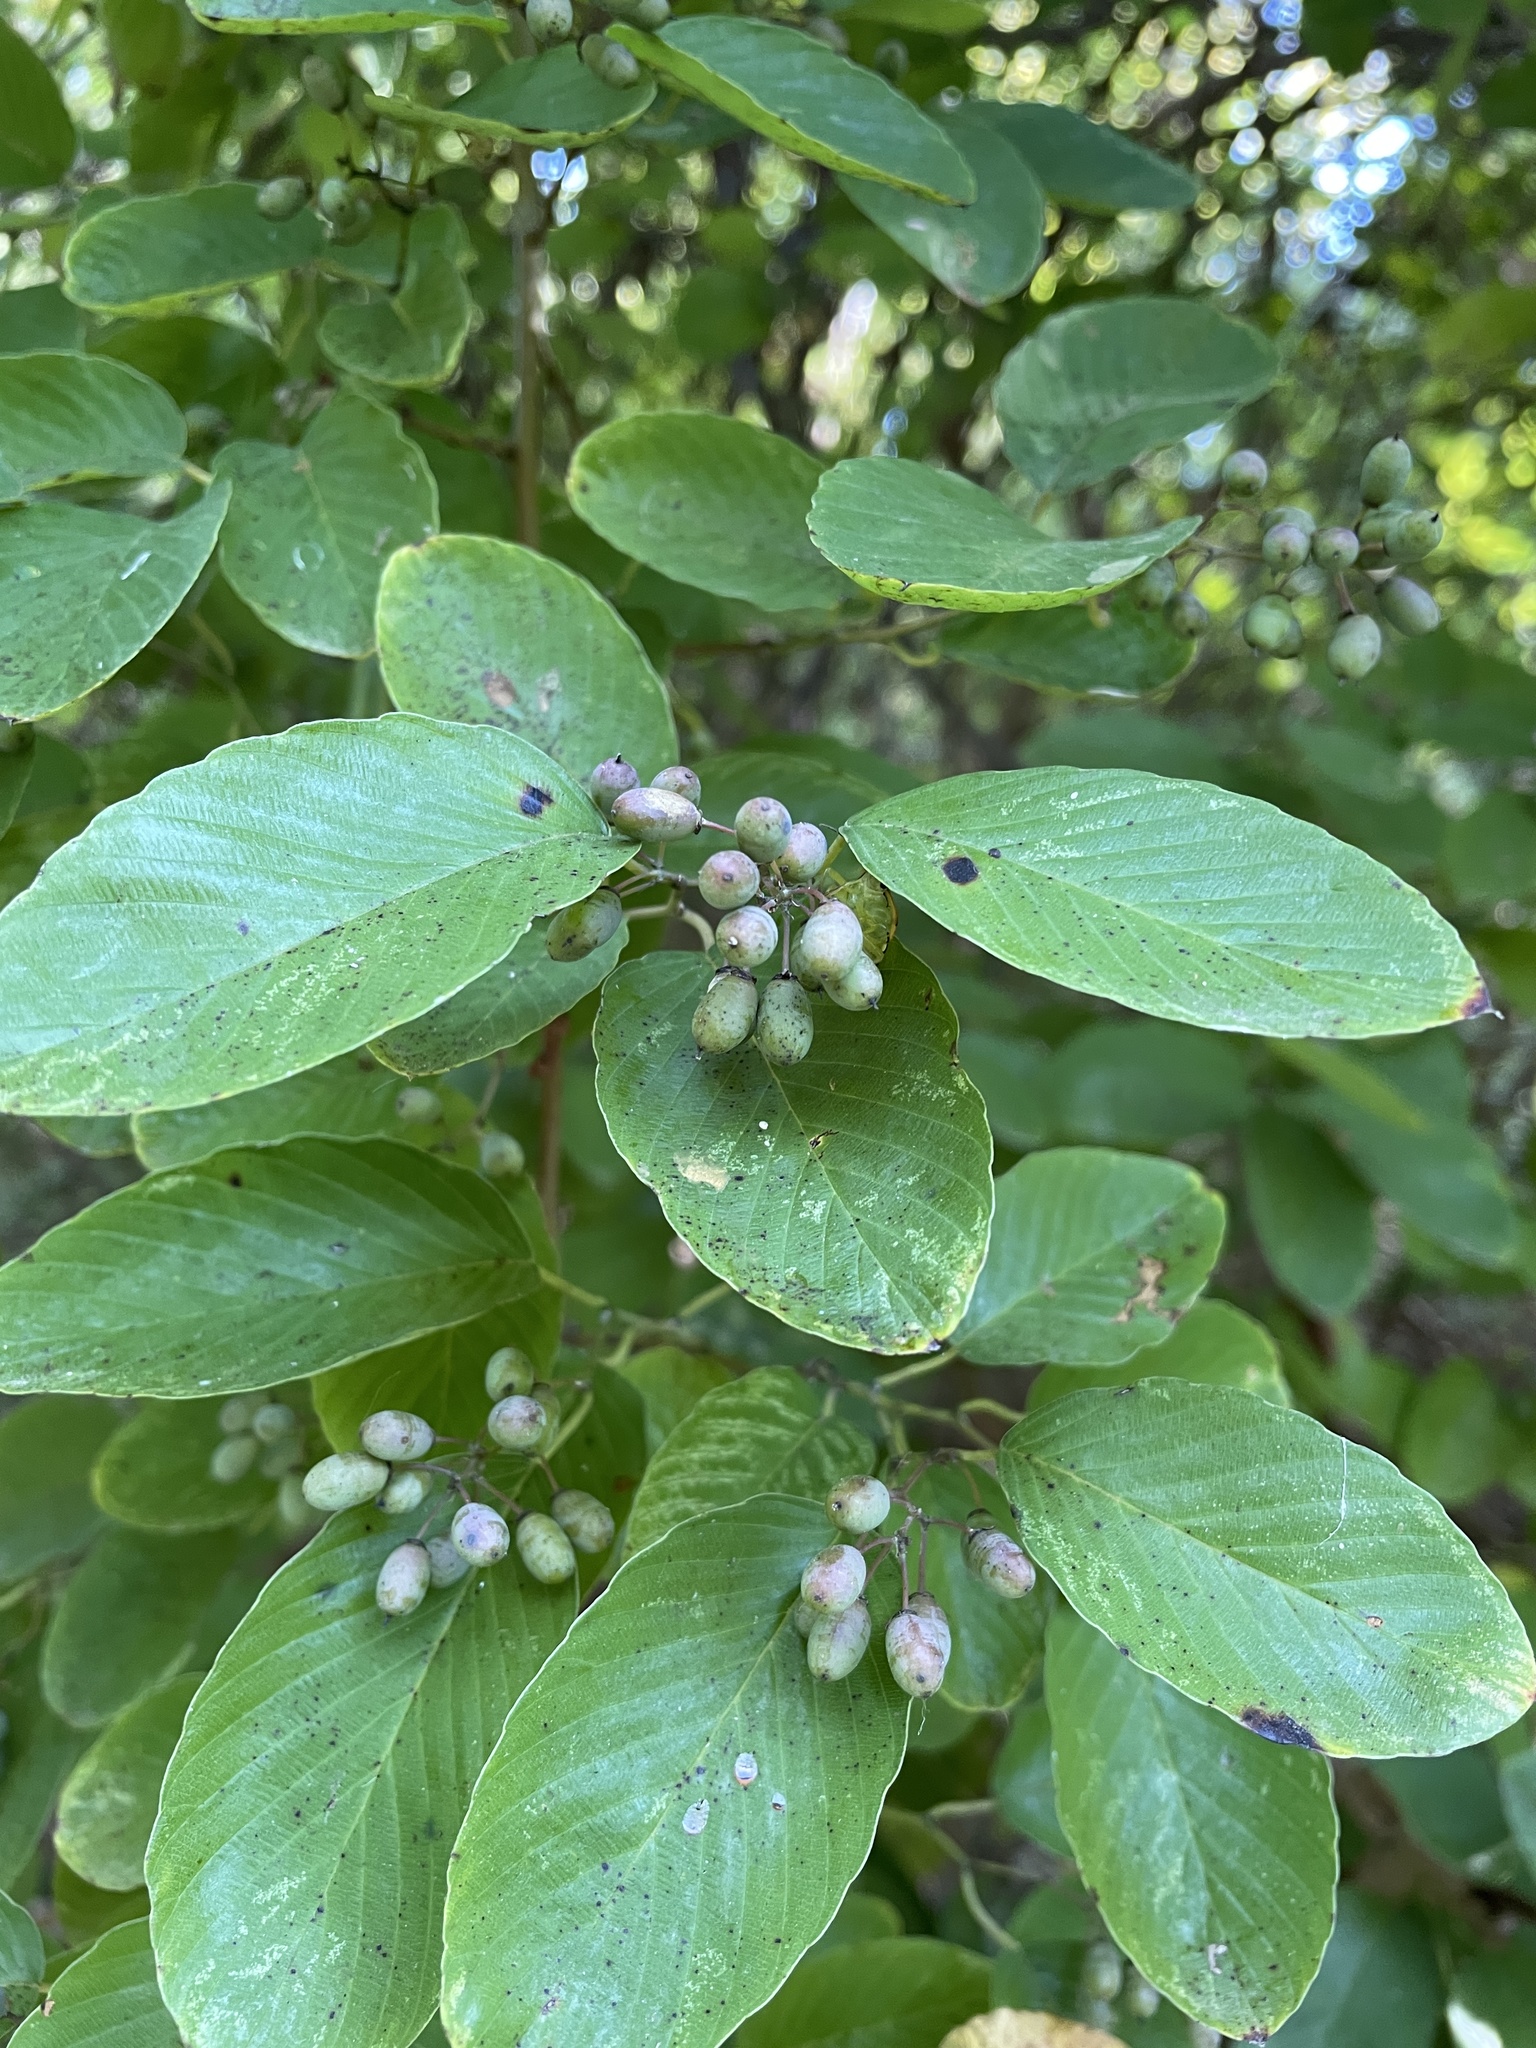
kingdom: Plantae
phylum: Tracheophyta
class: Magnoliopsida
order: Rosales
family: Rhamnaceae
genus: Berchemia
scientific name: Berchemia scandens
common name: Supplejack
